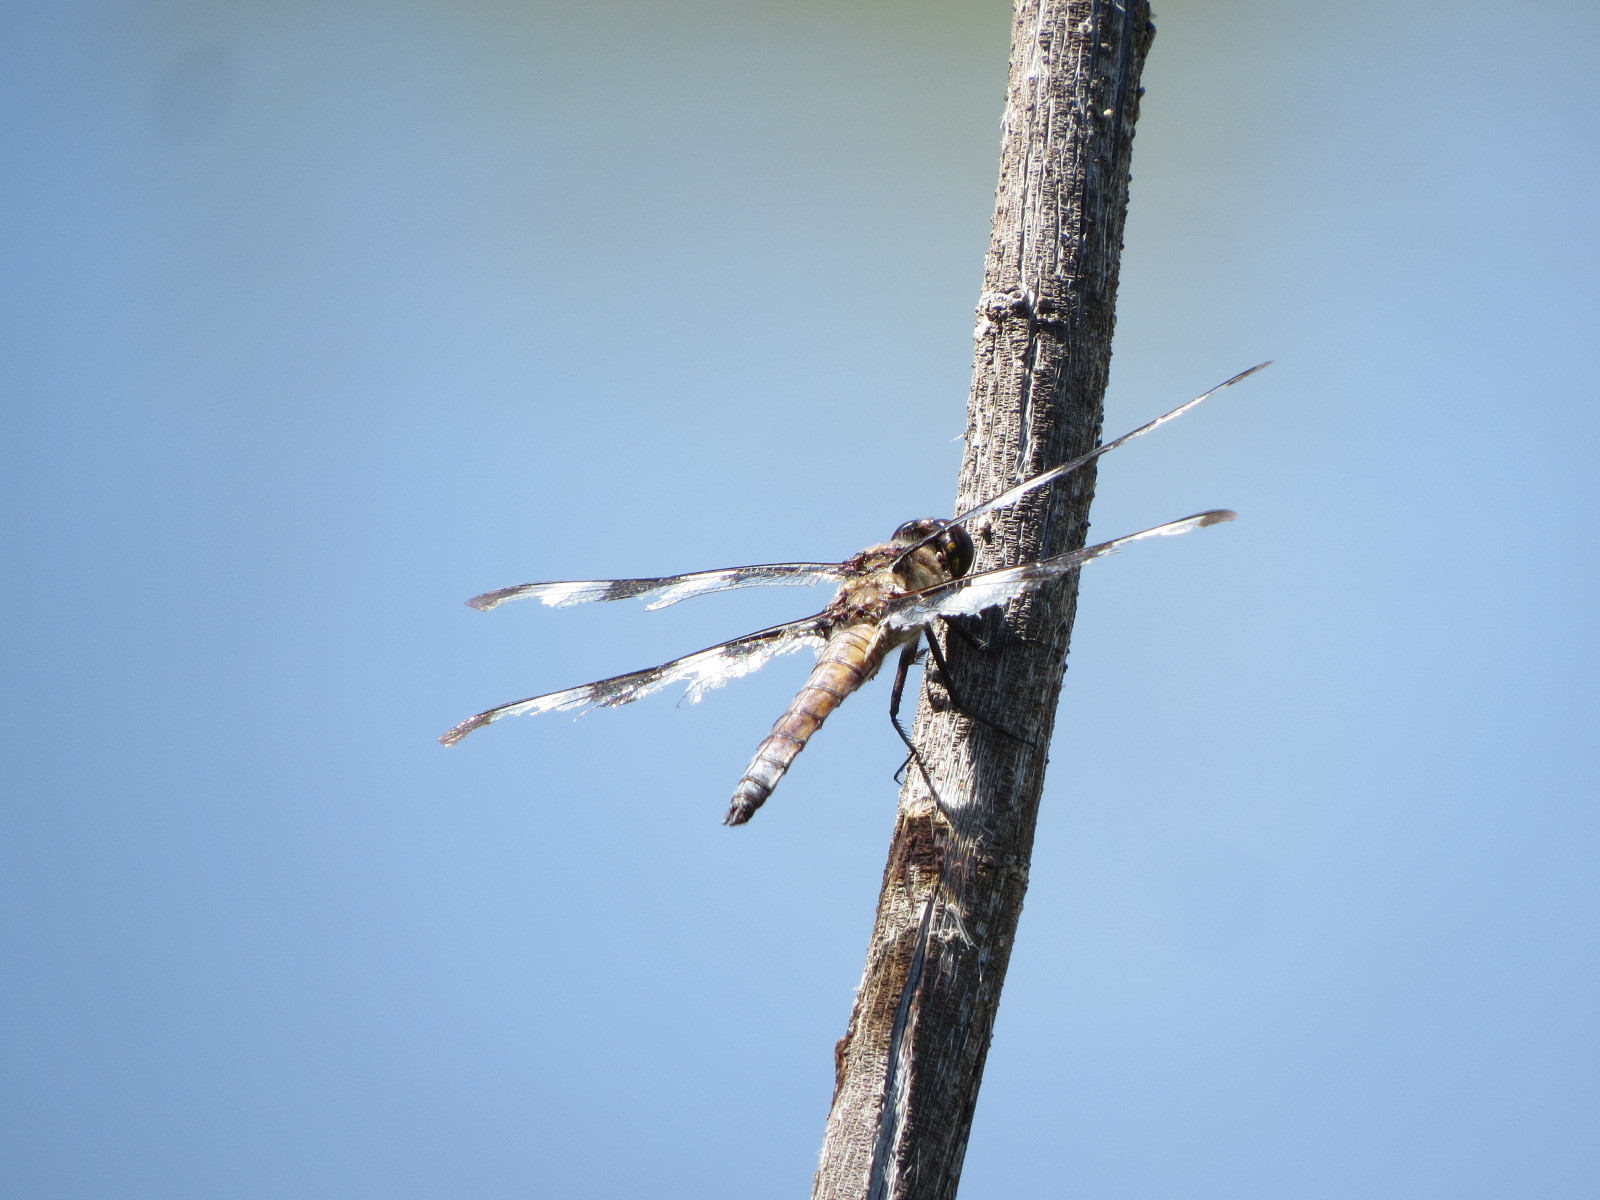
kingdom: Animalia
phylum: Arthropoda
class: Insecta
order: Odonata
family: Libellulidae
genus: Libellula
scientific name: Libellula pulchella
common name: Twelve-spotted skimmer
